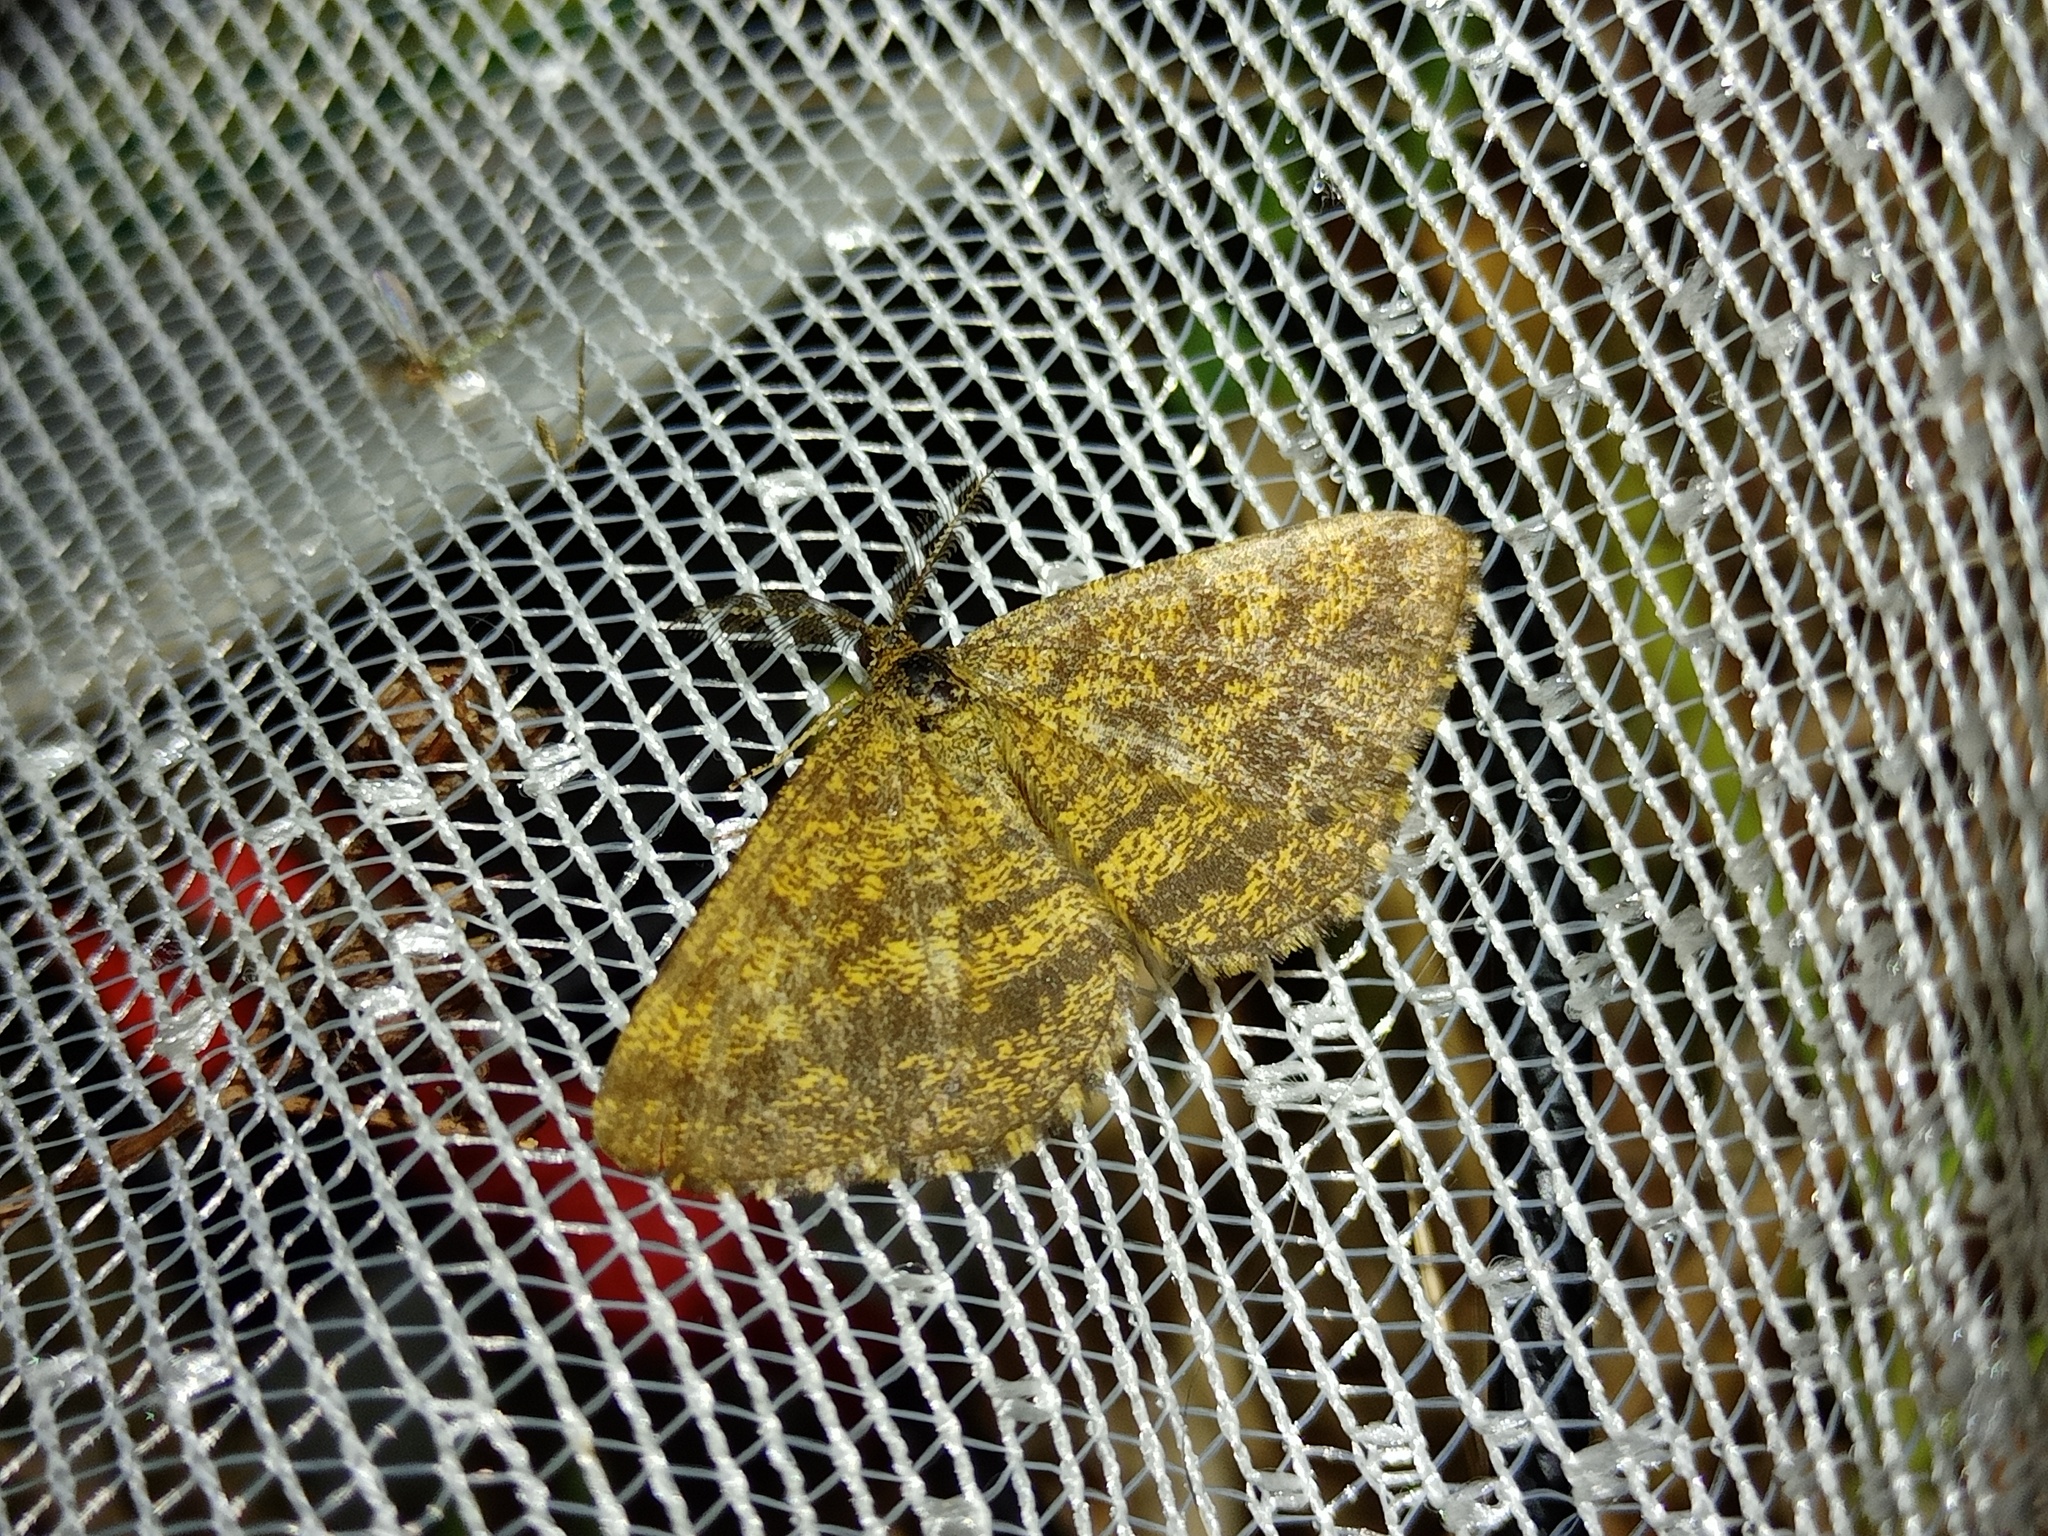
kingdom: Animalia
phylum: Arthropoda
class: Insecta
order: Lepidoptera
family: Geometridae
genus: Ematurga
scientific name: Ematurga atomaria
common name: Common heath
